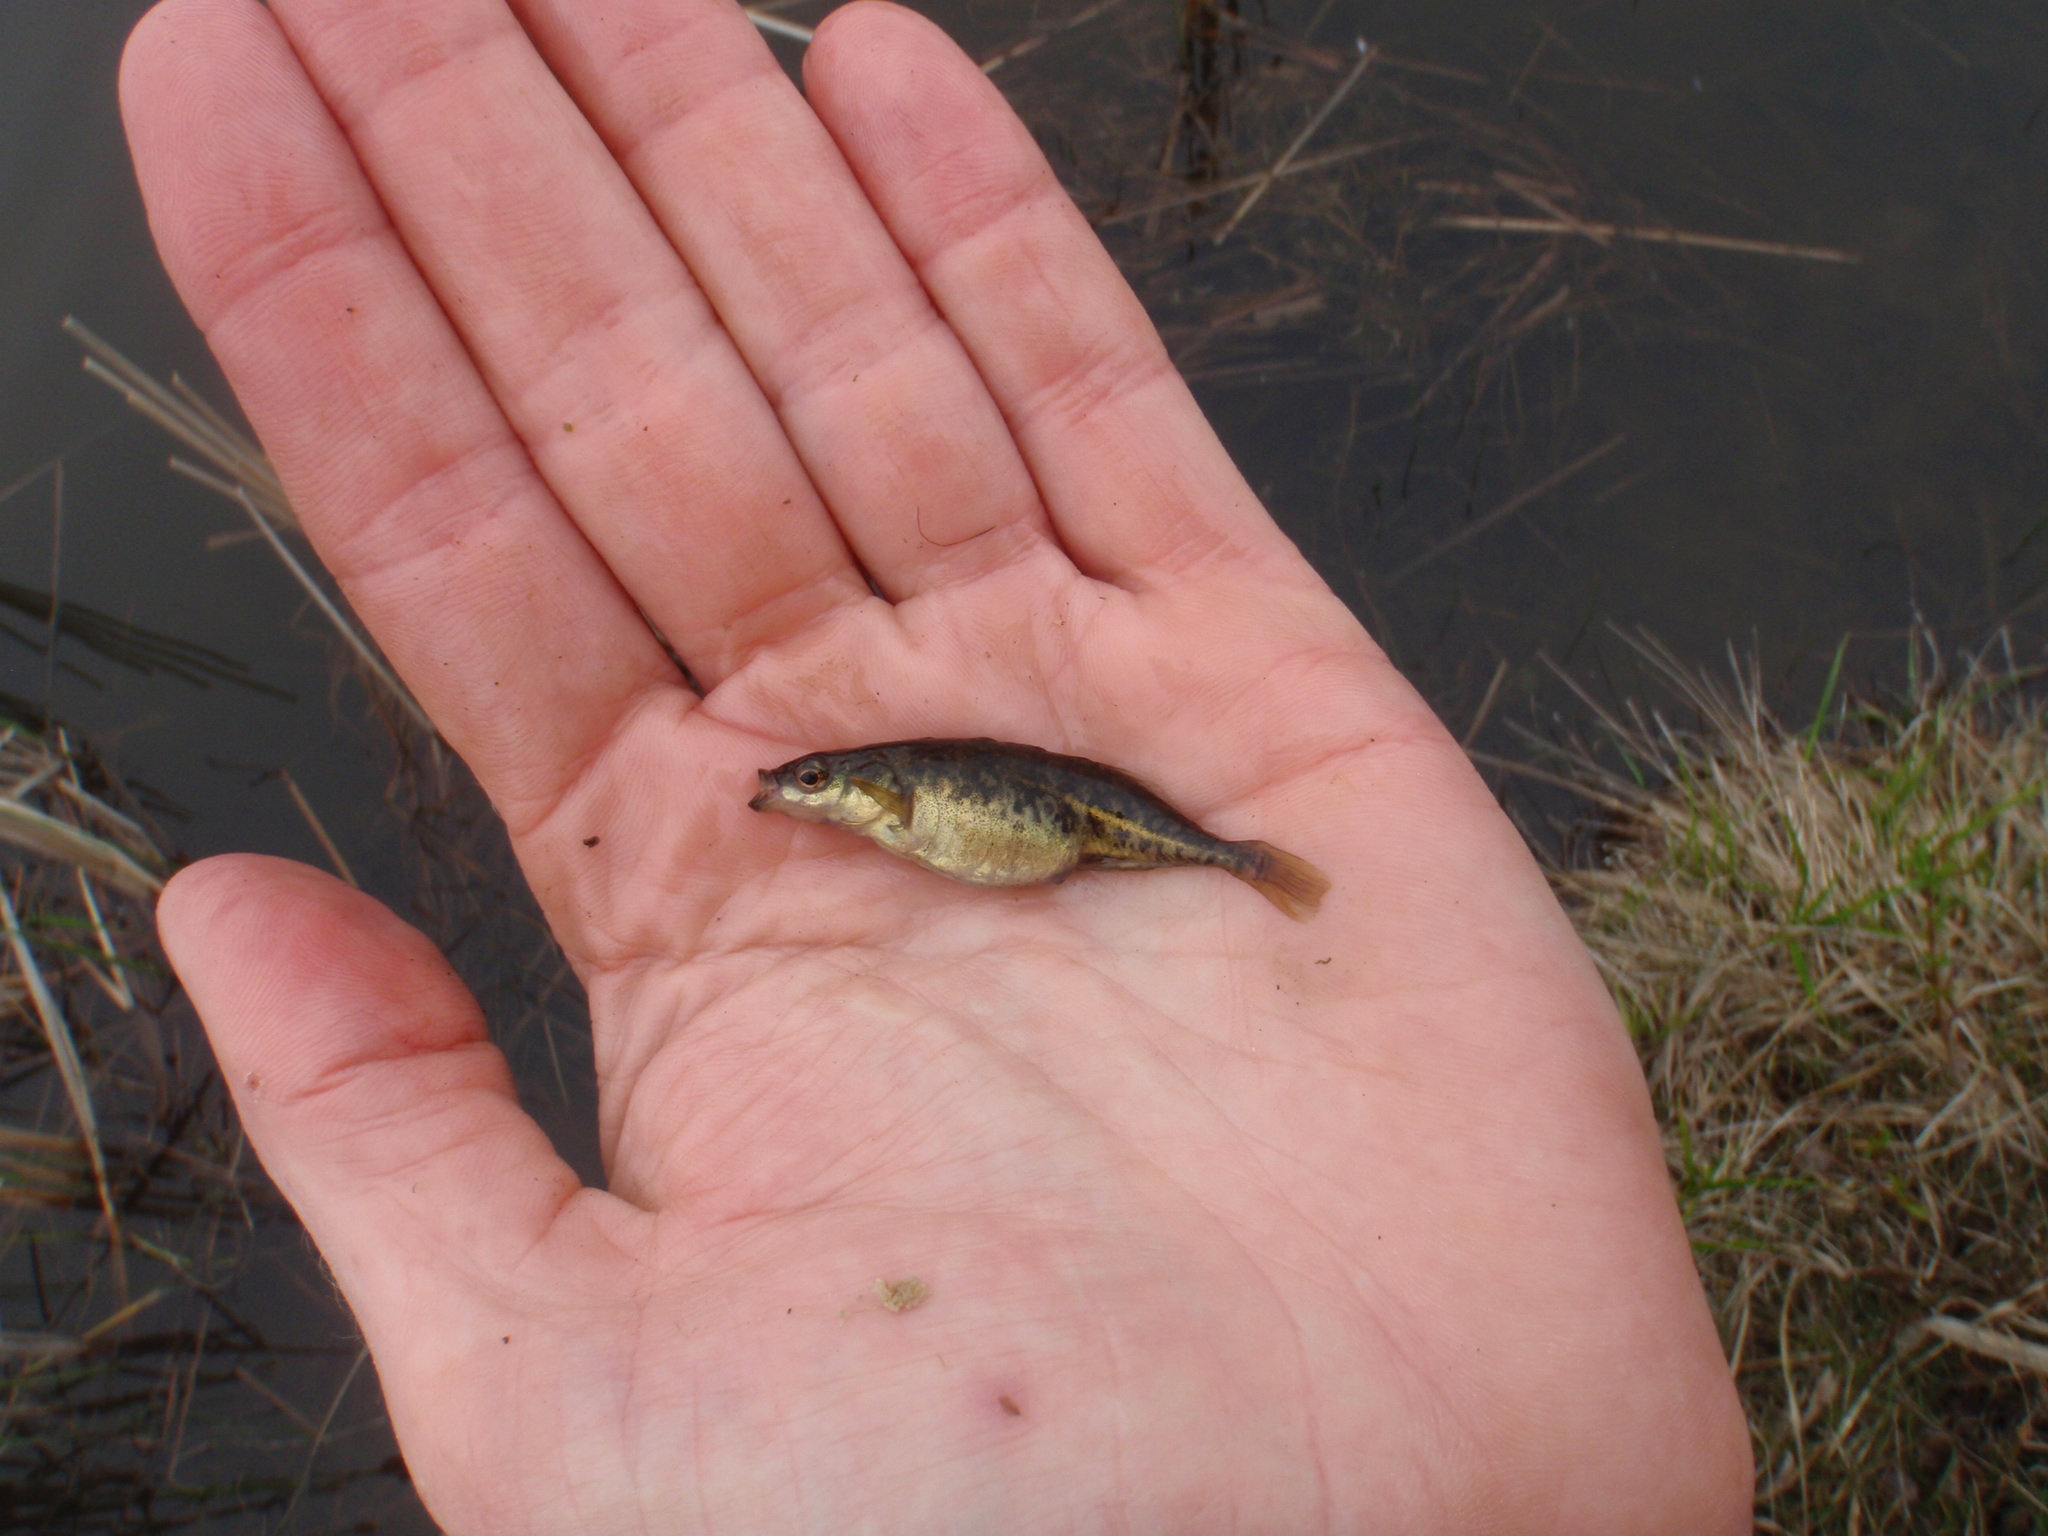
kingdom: Animalia
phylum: Chordata
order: Gasterosteiformes
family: Gasterosteidae
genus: Culaea
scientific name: Culaea inconstans
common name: Brook stickleback
